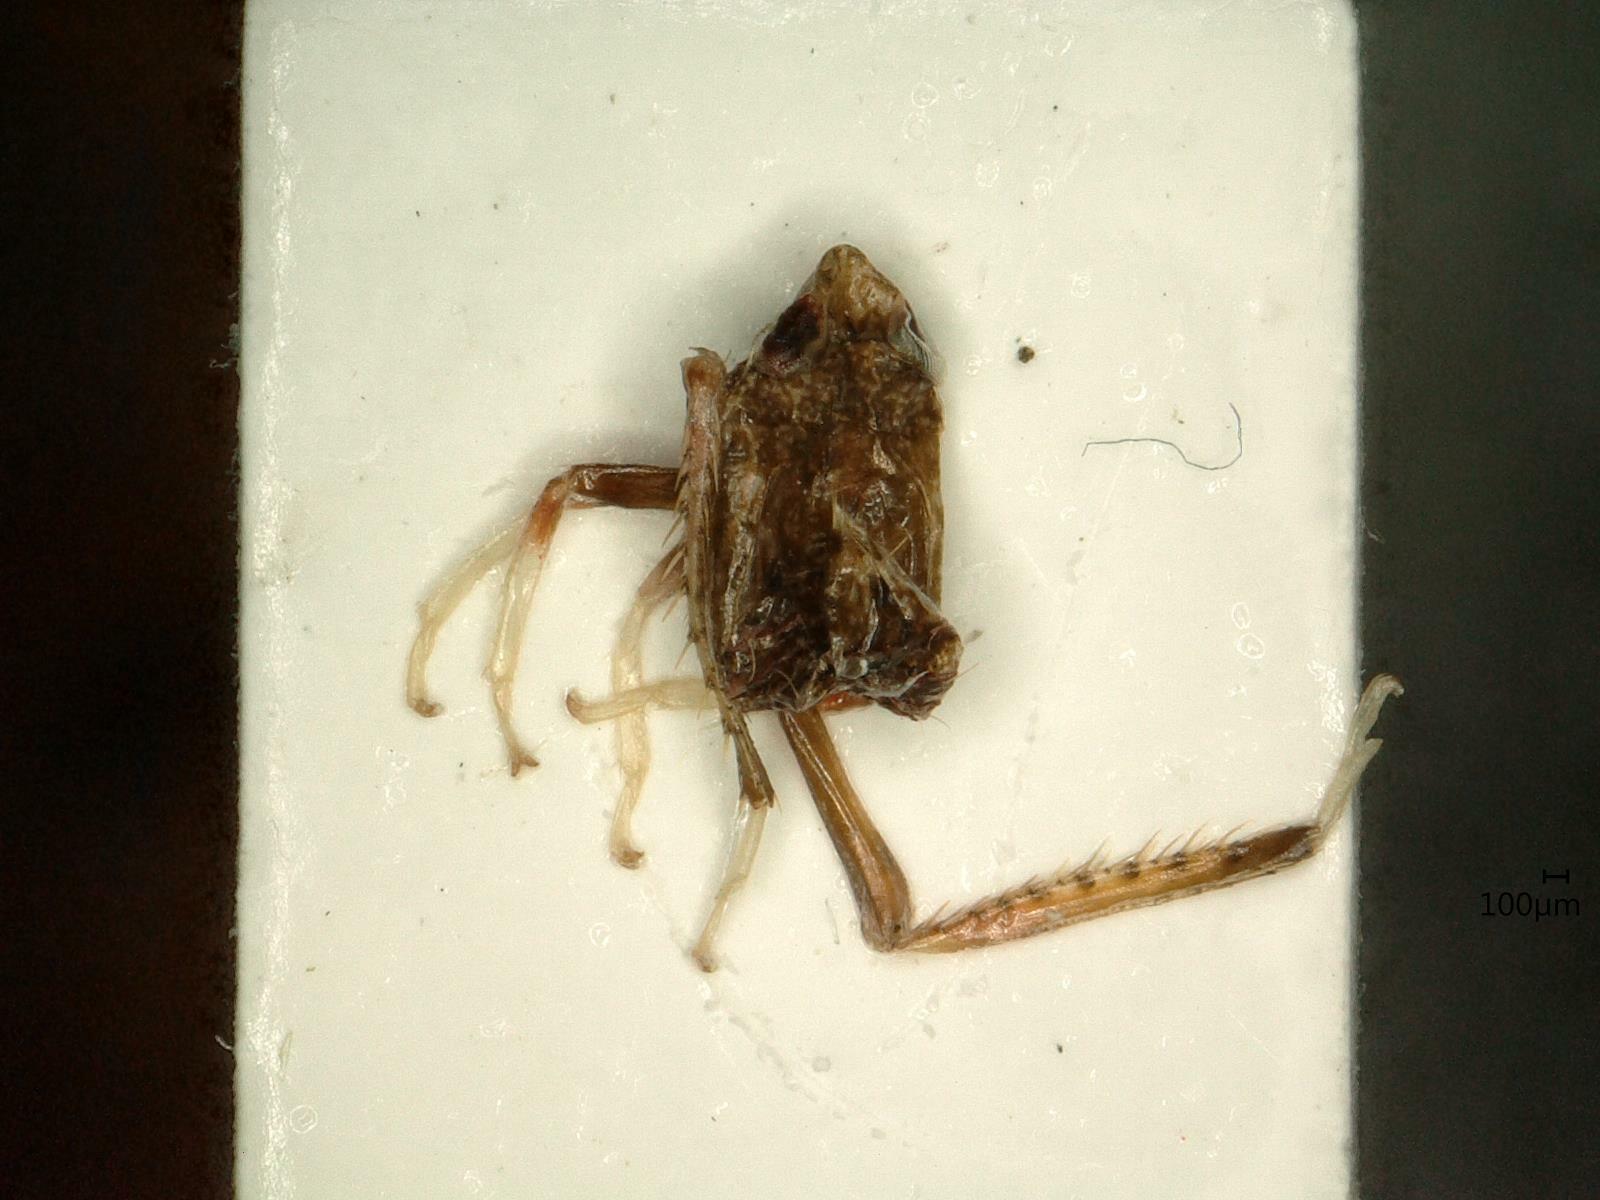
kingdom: Animalia
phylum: Arthropoda
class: Insecta
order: Hemiptera
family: Cicadellidae
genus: Orientus
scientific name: Orientus ishidae
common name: Japanese leafhopper
